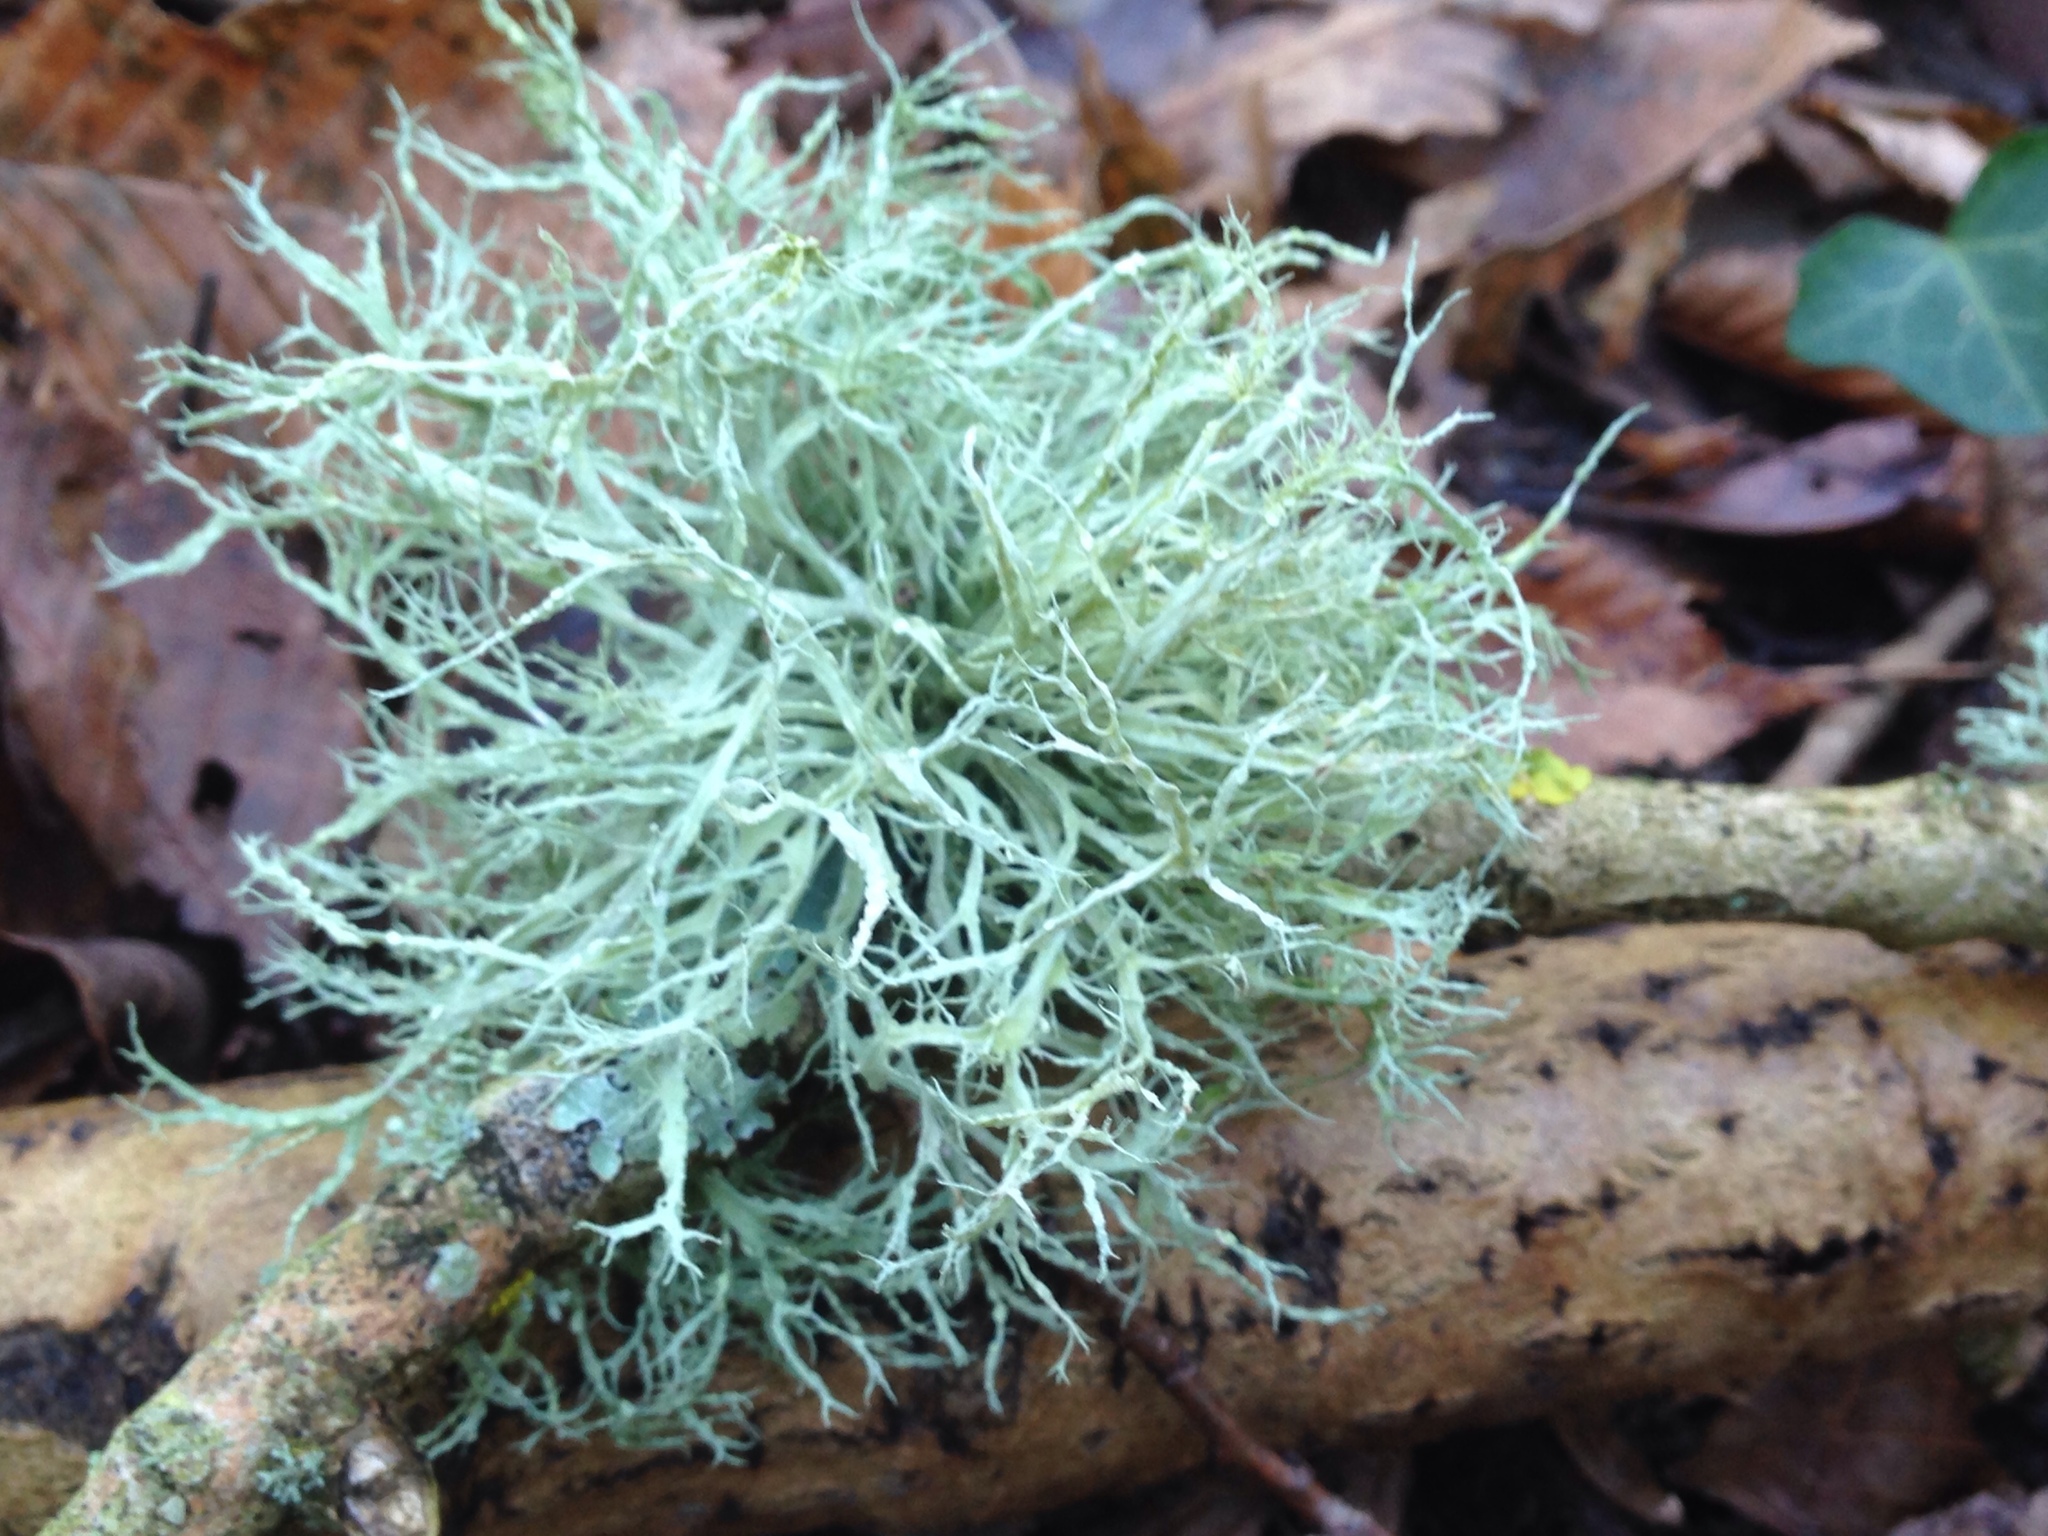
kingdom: Fungi
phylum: Ascomycota
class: Lecanoromycetes
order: Lecanorales
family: Ramalinaceae
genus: Ramalina
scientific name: Ramalina farinacea
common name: Farinose cartilage lichen
